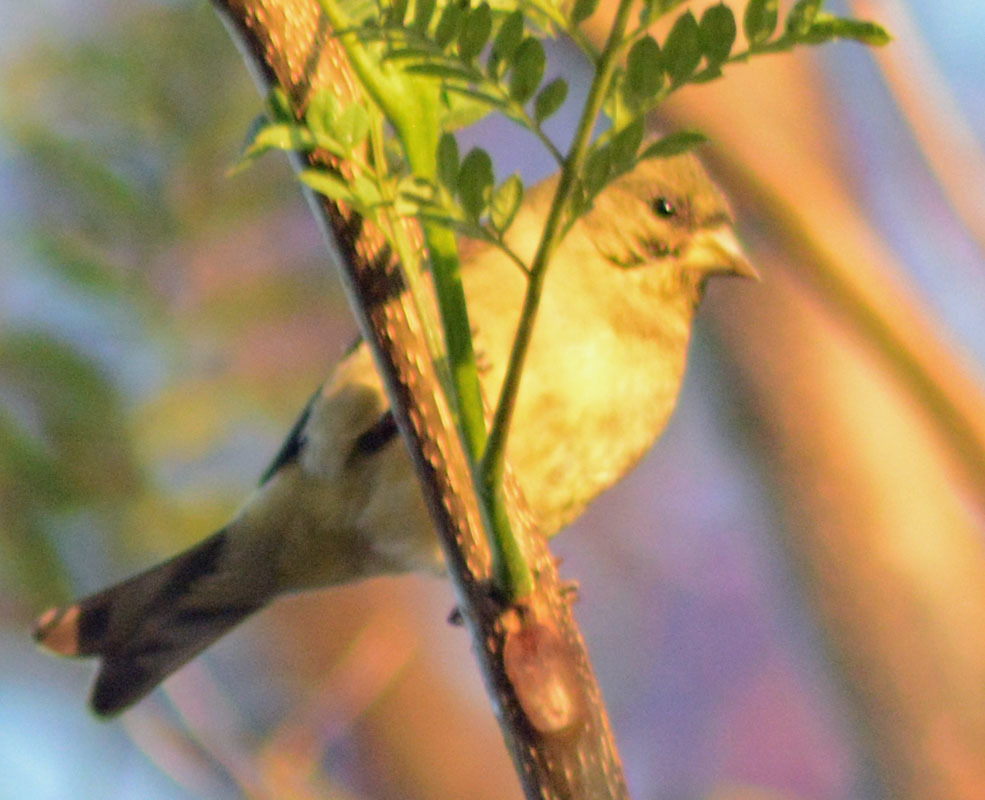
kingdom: Animalia
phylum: Chordata
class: Aves
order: Passeriformes
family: Fringillidae
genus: Spinus
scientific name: Spinus psaltria
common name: Lesser goldfinch
